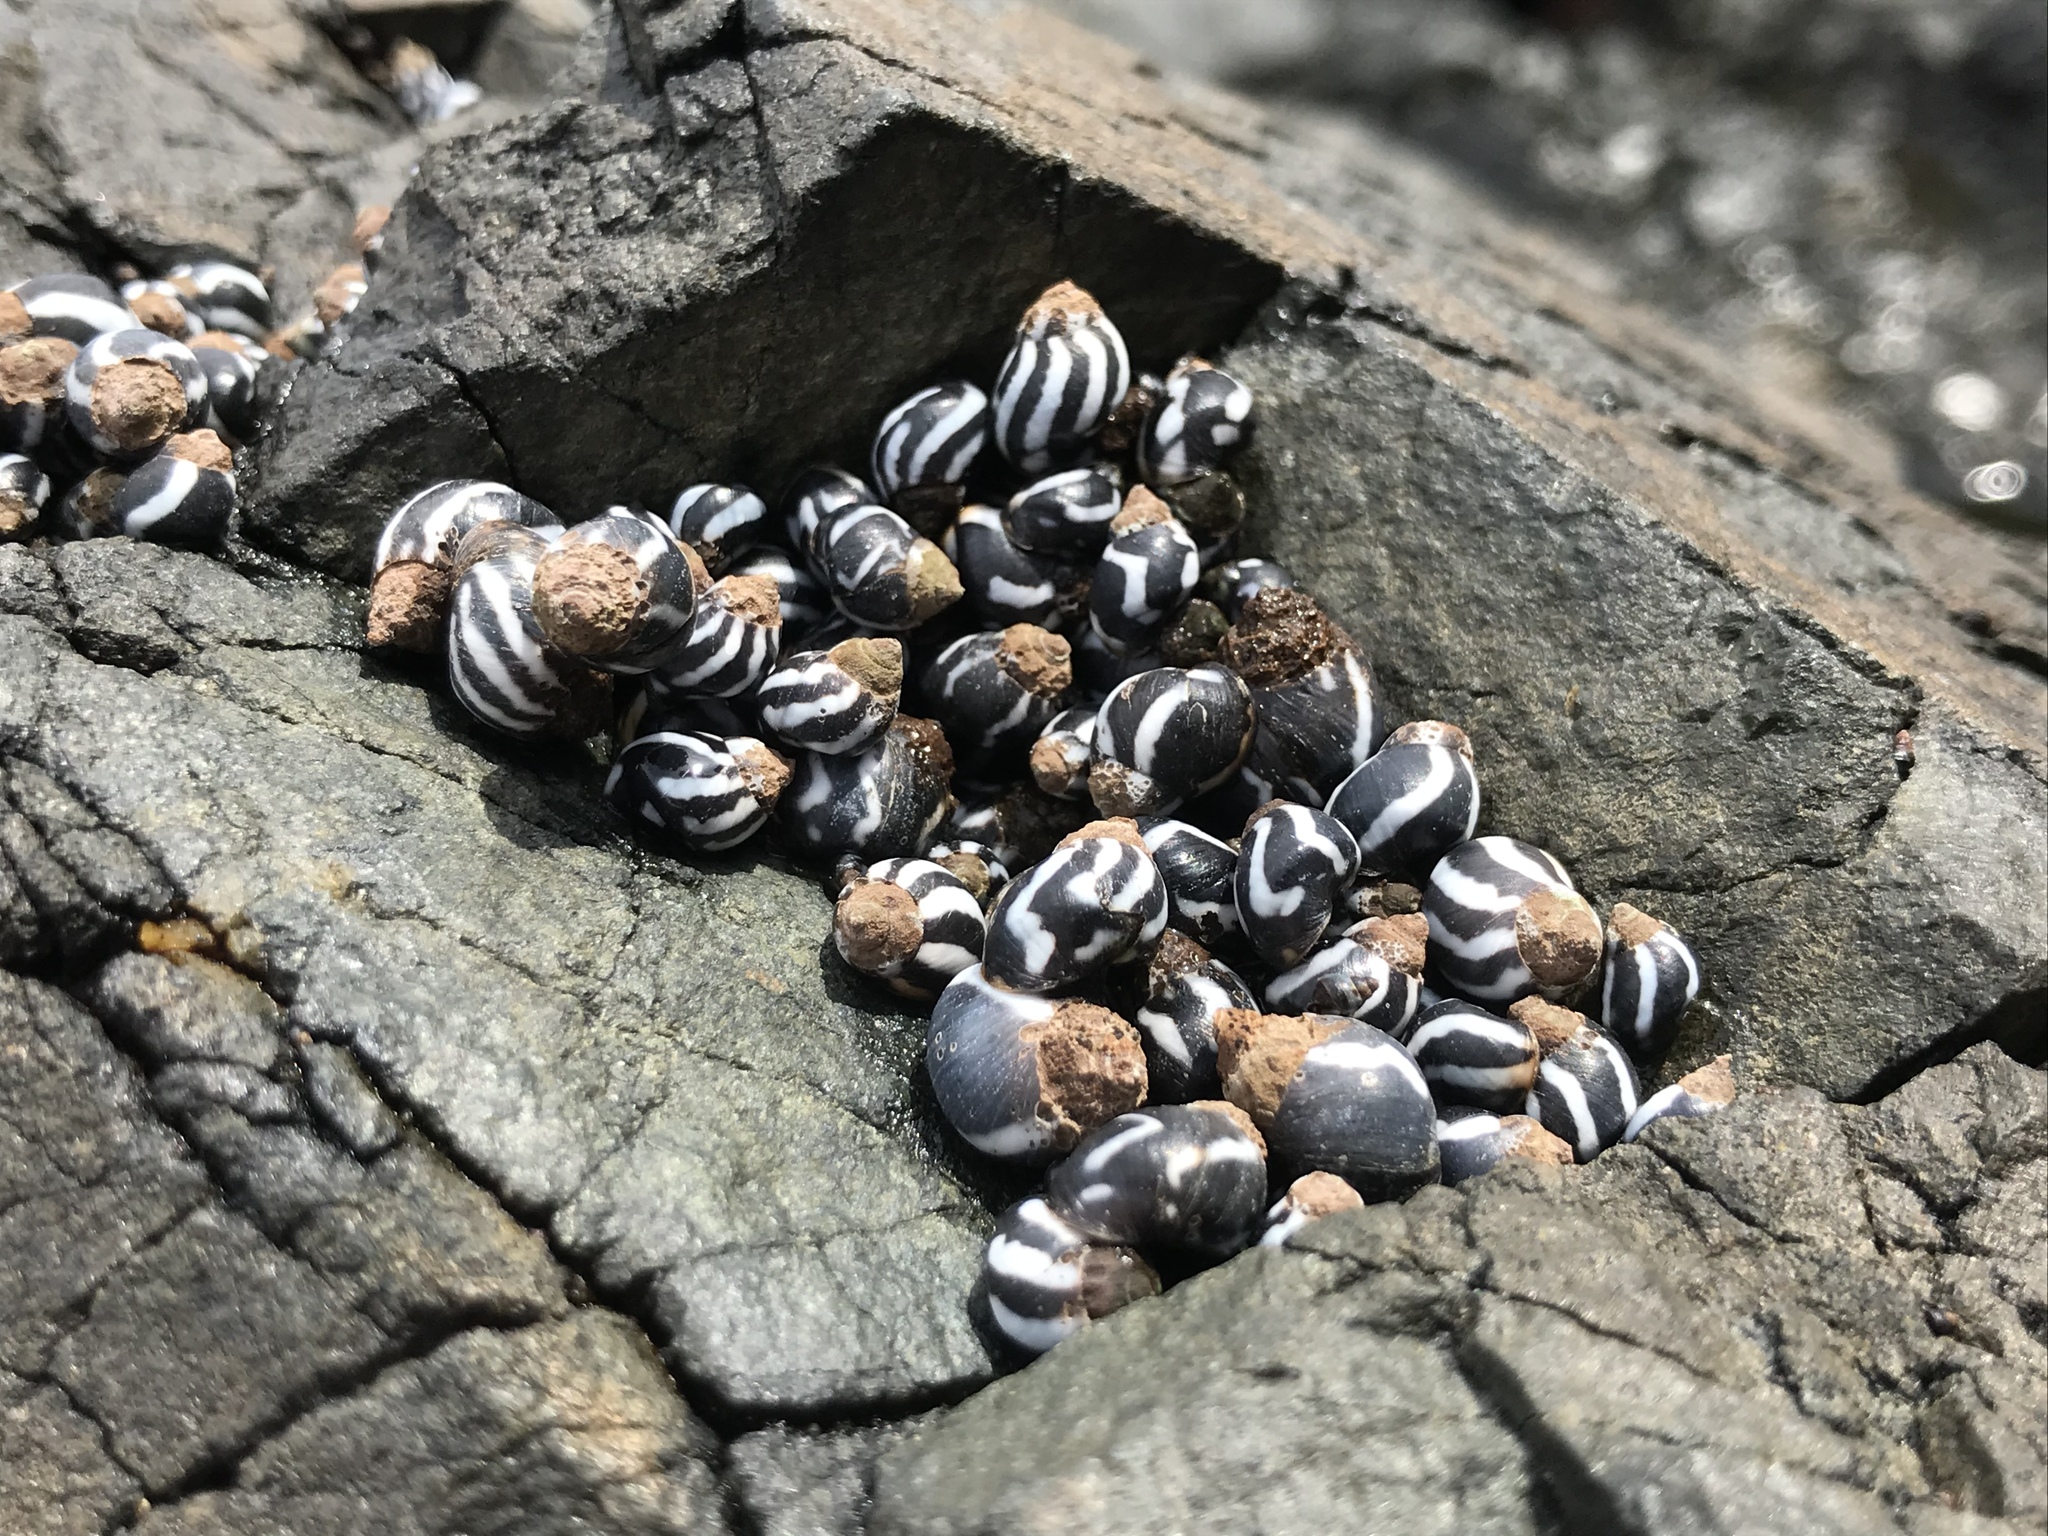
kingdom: Animalia
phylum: Mollusca
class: Gastropoda
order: Littorinimorpha
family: Littorinidae
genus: Echinolittorina
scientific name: Echinolittorina peruviana
